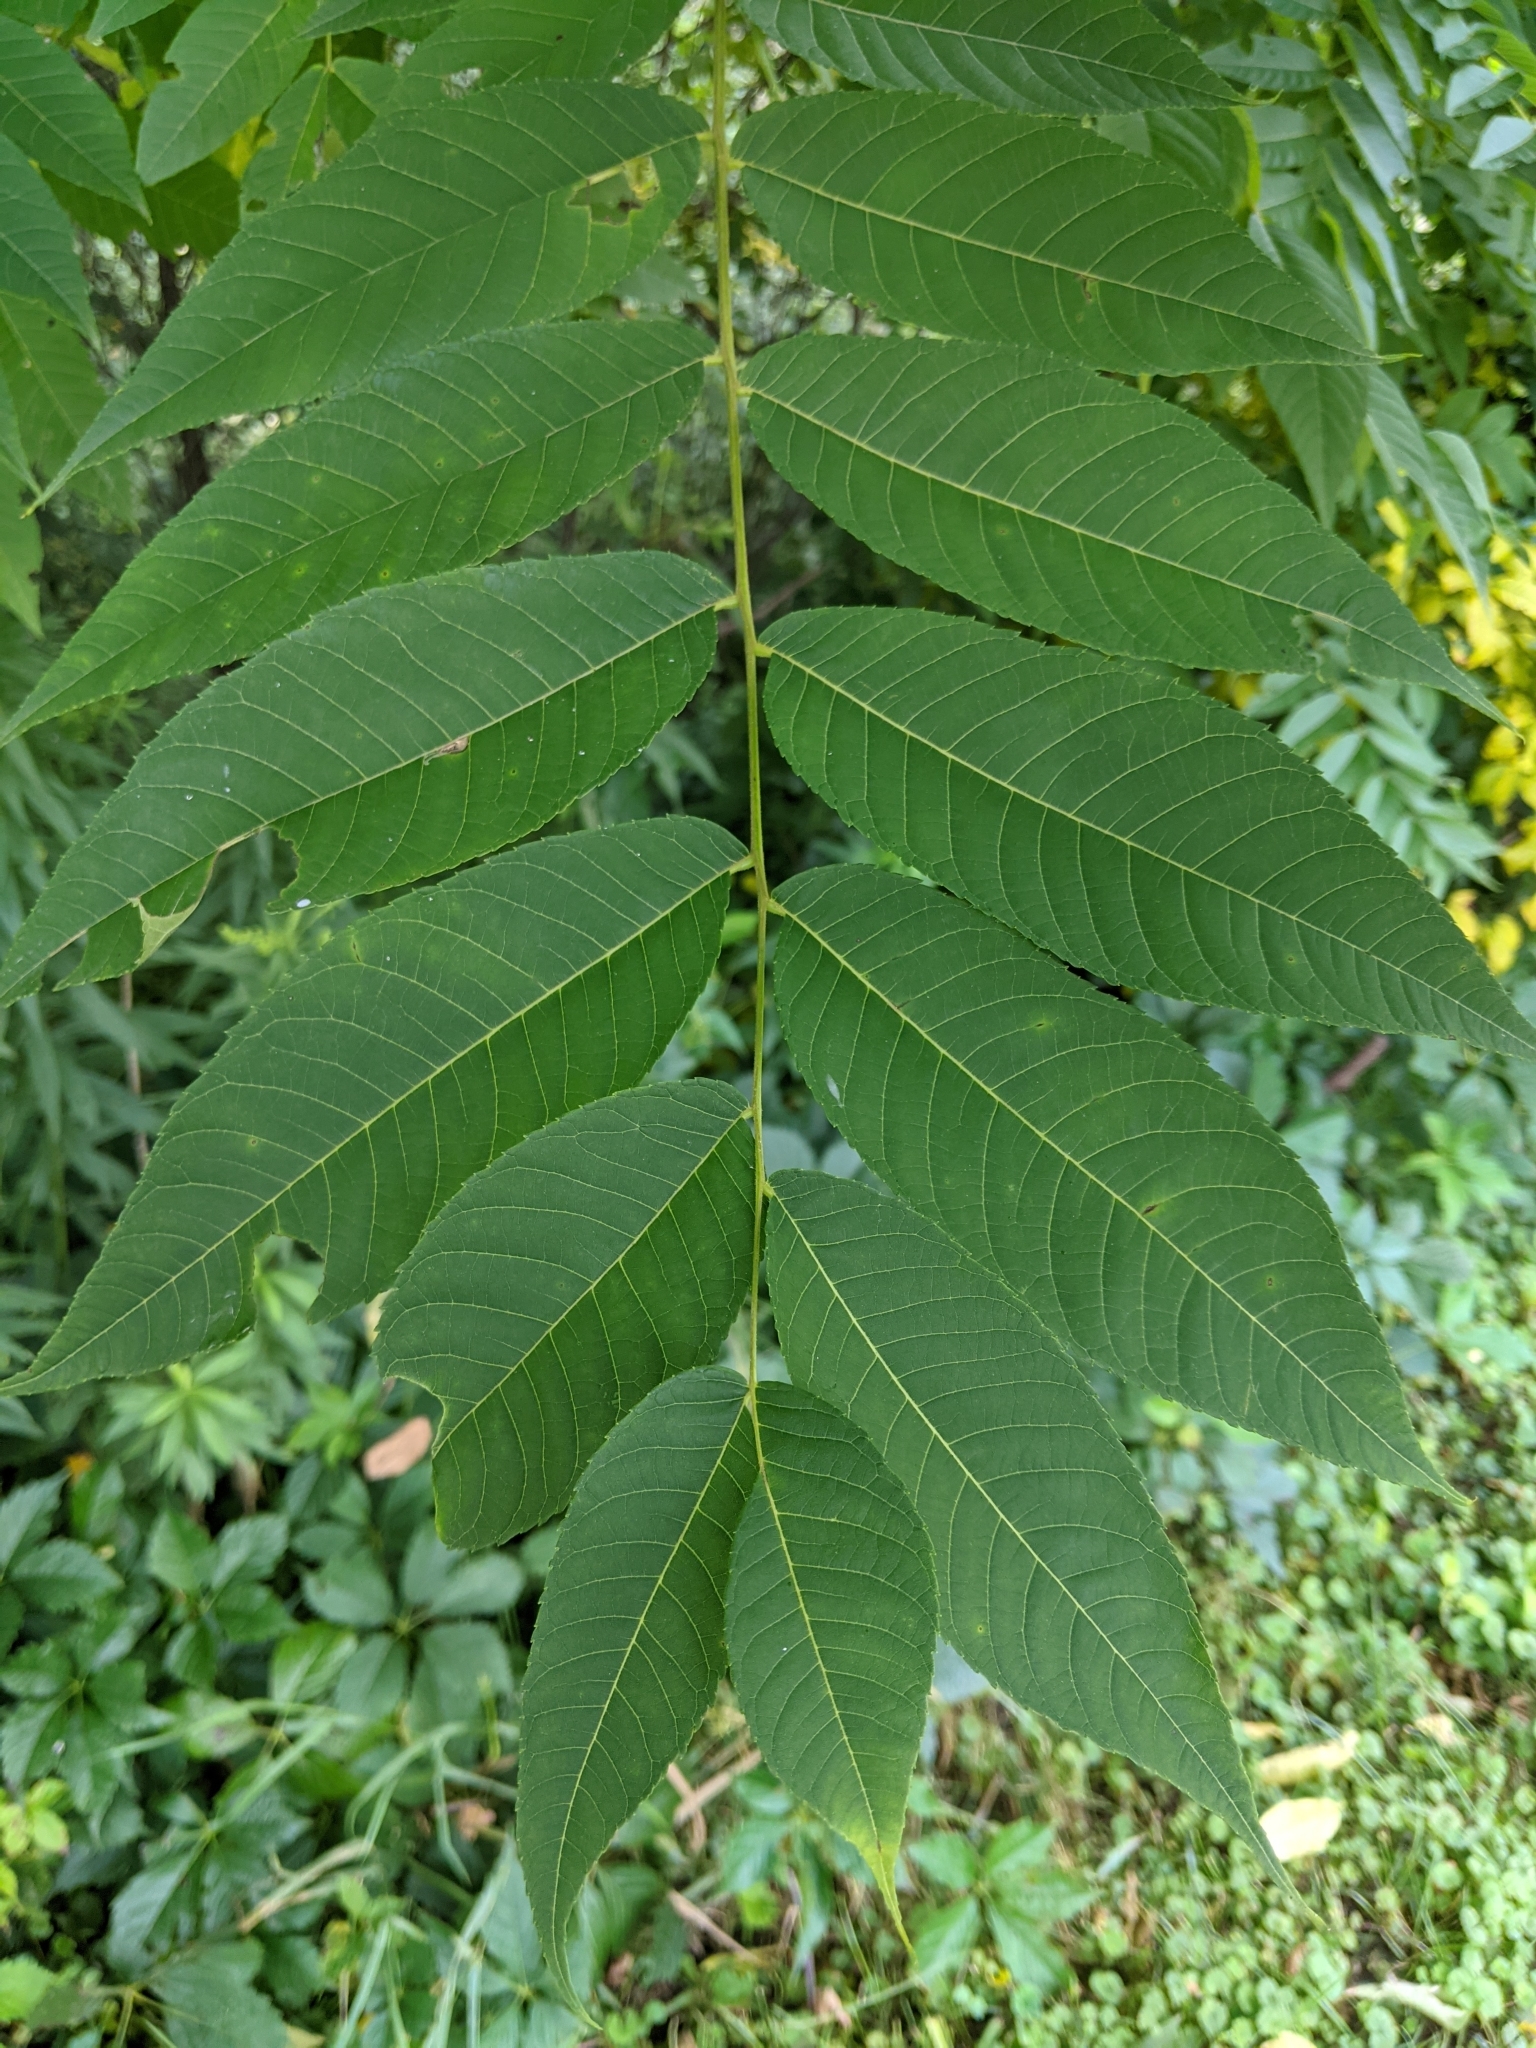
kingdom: Plantae
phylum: Tracheophyta
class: Magnoliopsida
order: Fagales
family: Juglandaceae
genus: Juglans
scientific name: Juglans nigra
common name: Black walnut
